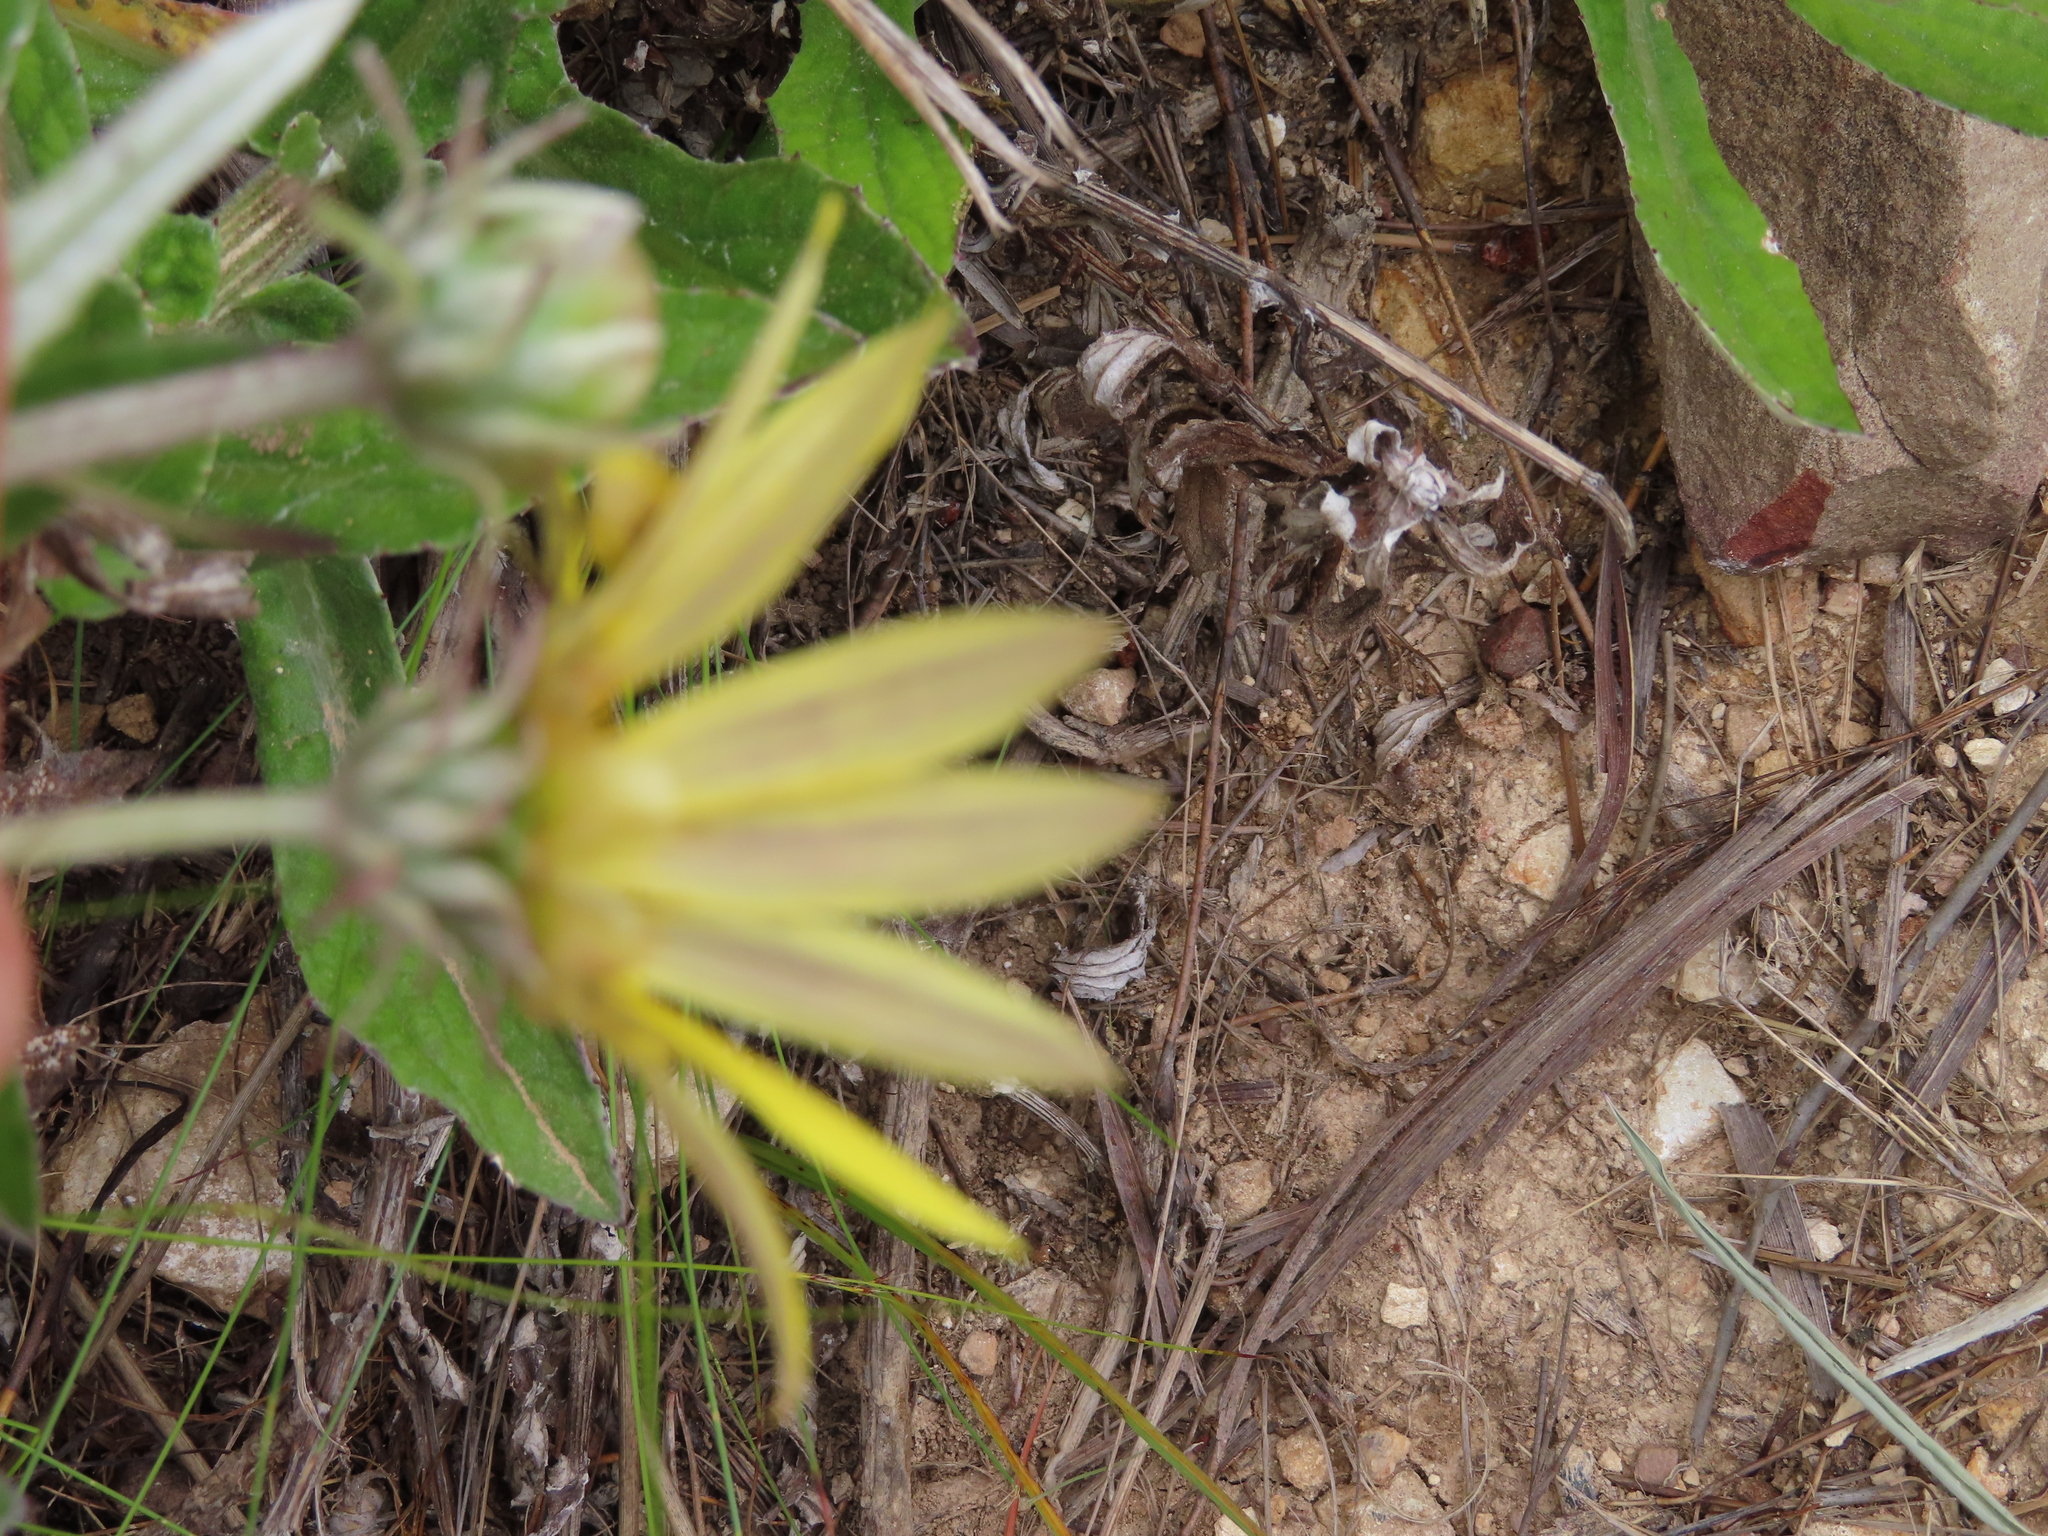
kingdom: Plantae
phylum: Tracheophyta
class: Magnoliopsida
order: Asterales
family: Asteraceae
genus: Arctotis
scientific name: Arctotis scabra
